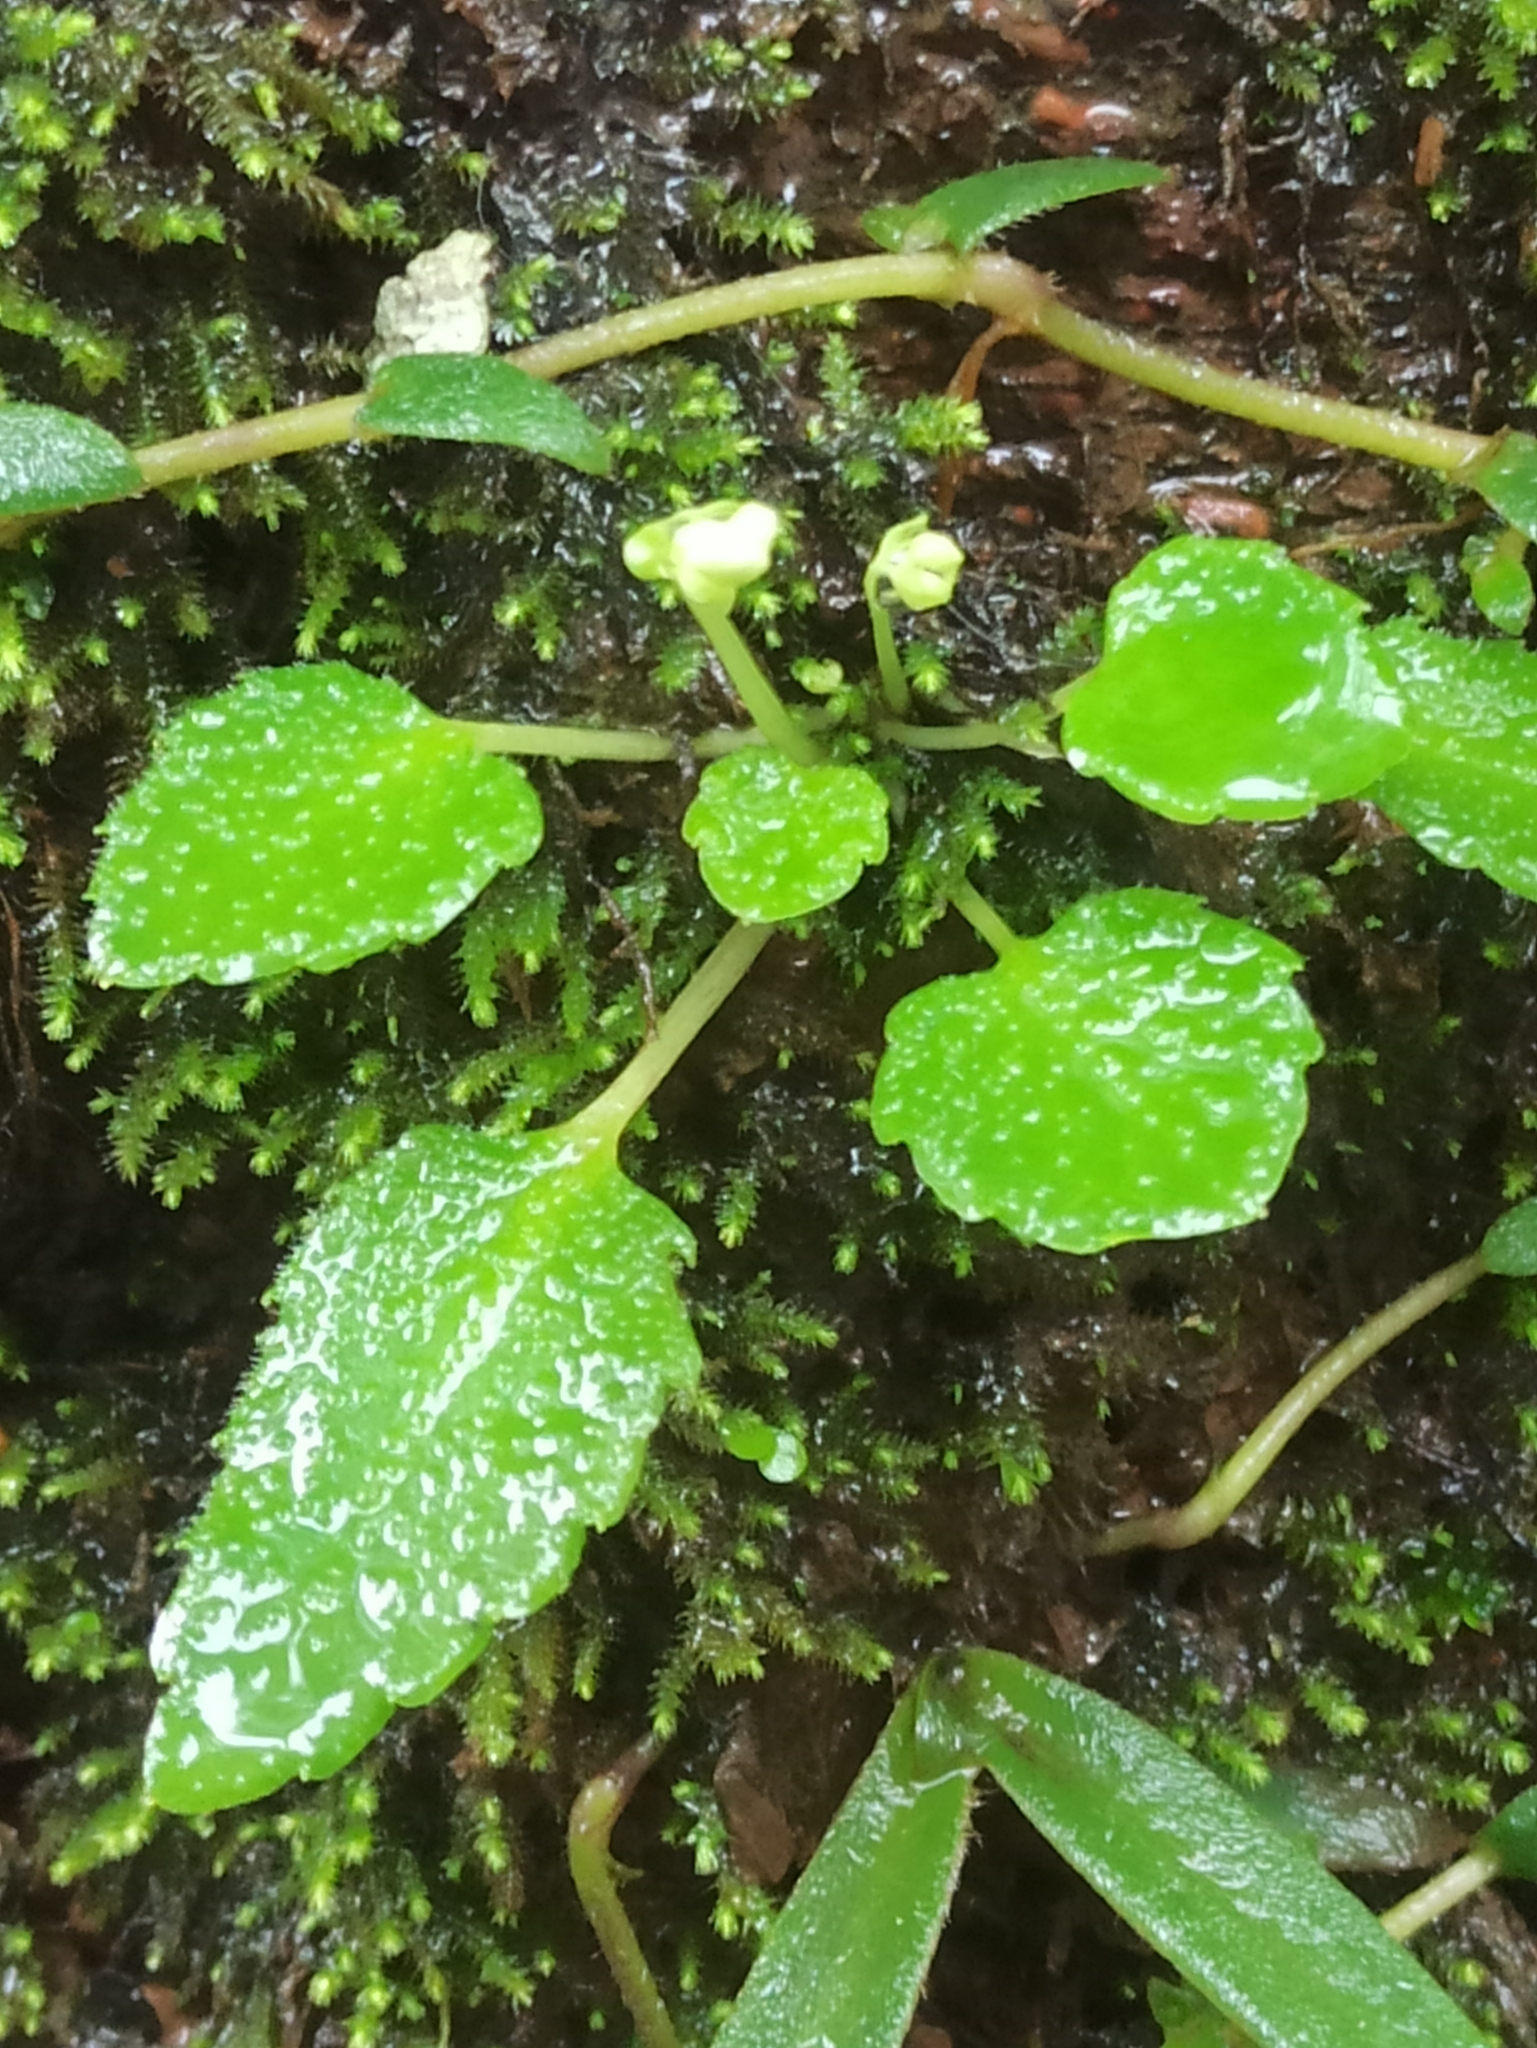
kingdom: Plantae
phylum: Tracheophyta
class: Magnoliopsida
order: Ericales
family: Balsaminaceae
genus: Impatiens
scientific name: Impatiens stocksii
